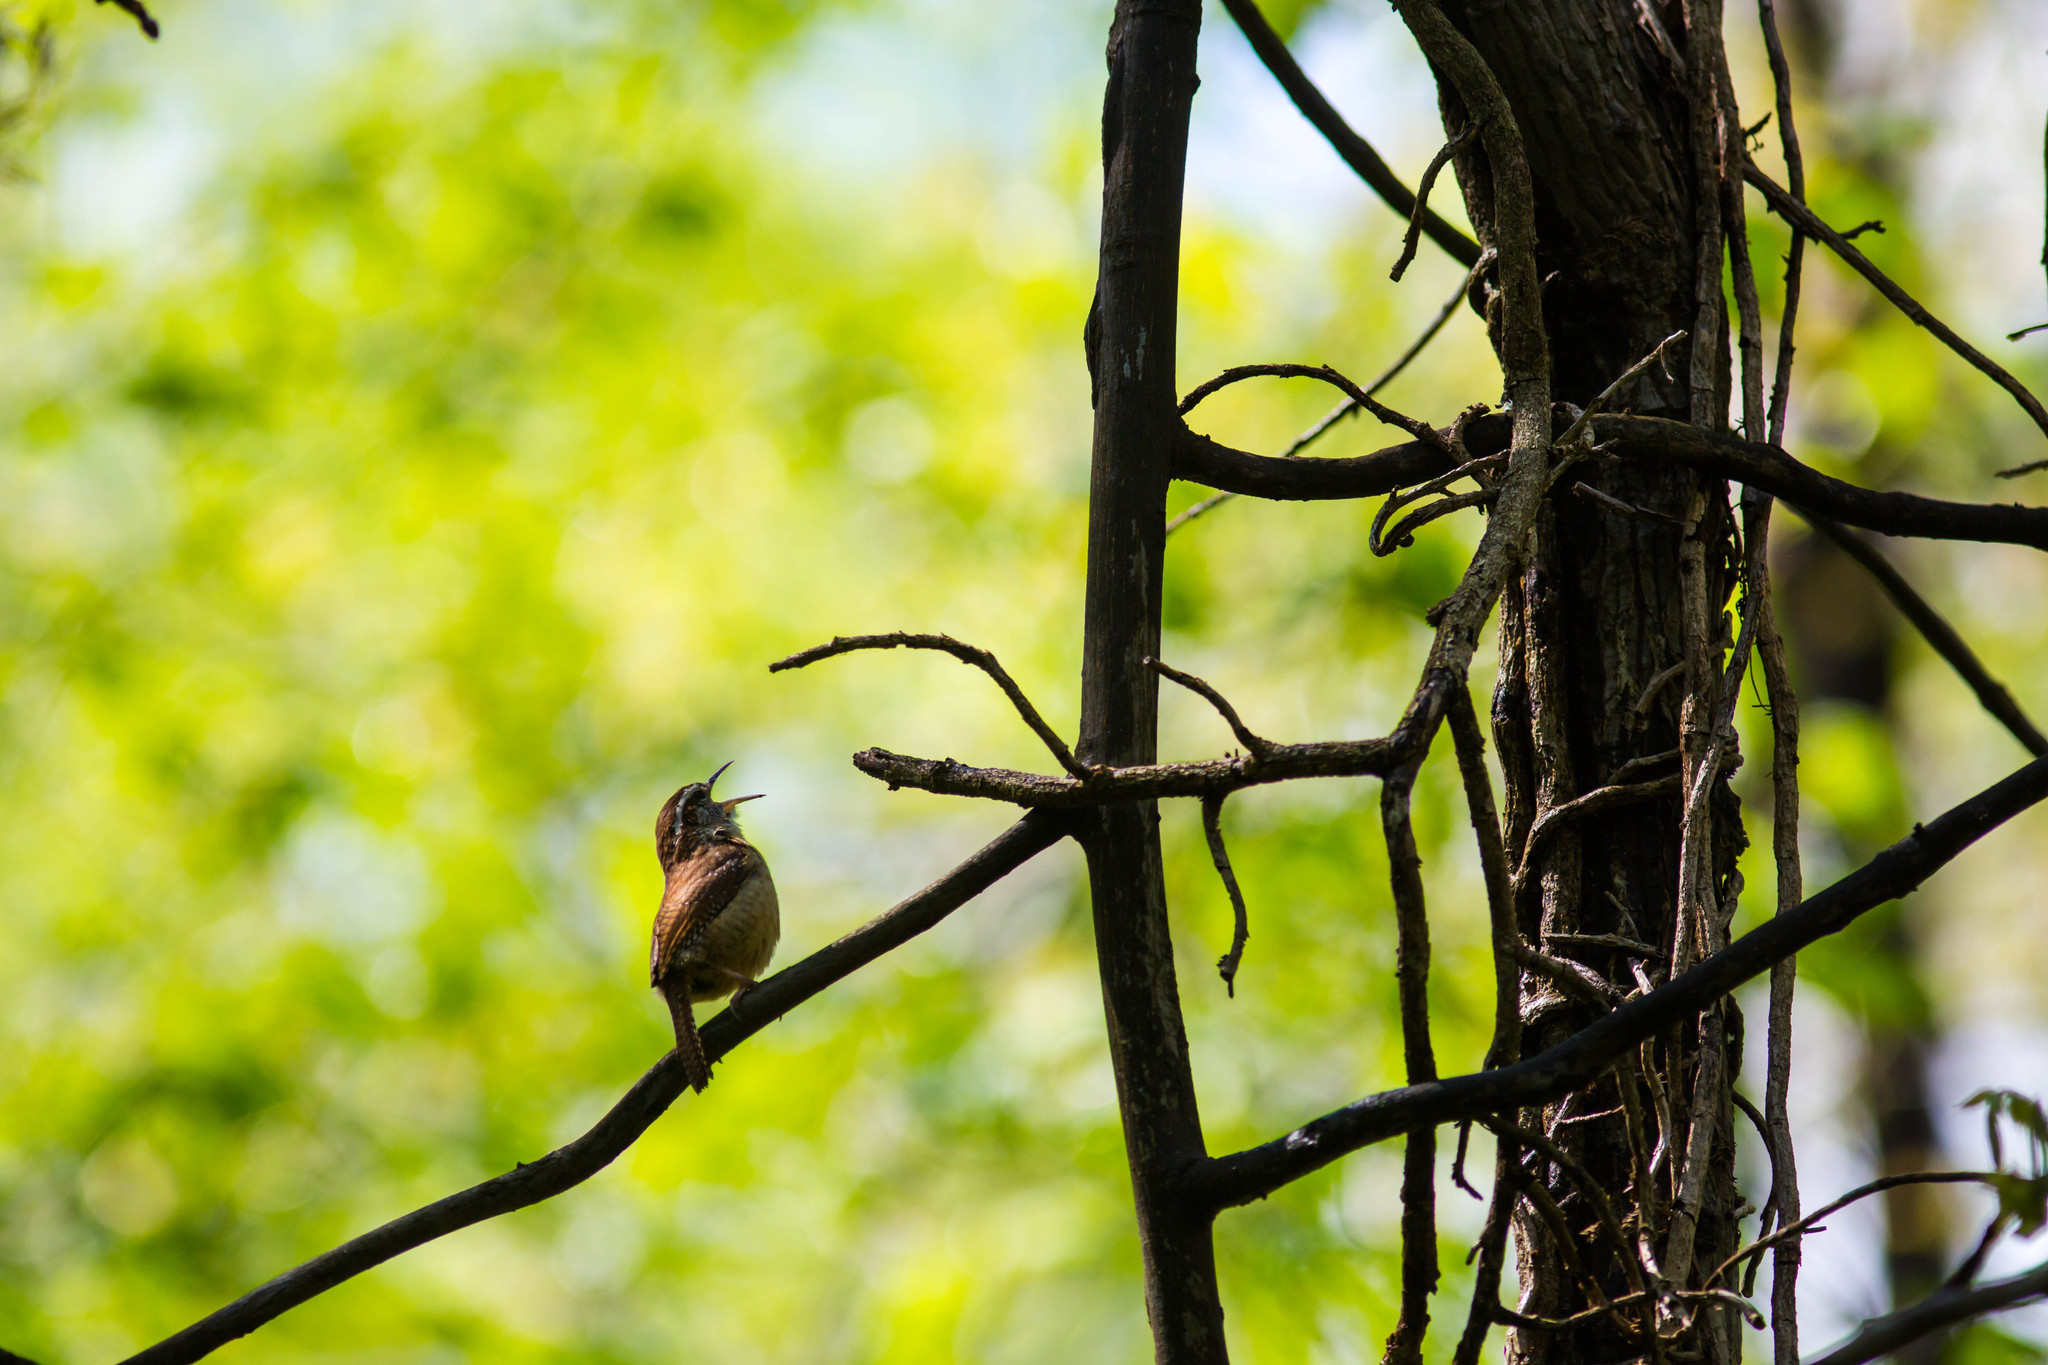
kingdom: Animalia
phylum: Chordata
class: Aves
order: Passeriformes
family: Troglodytidae
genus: Thryothorus
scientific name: Thryothorus ludovicianus
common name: Carolina wren
